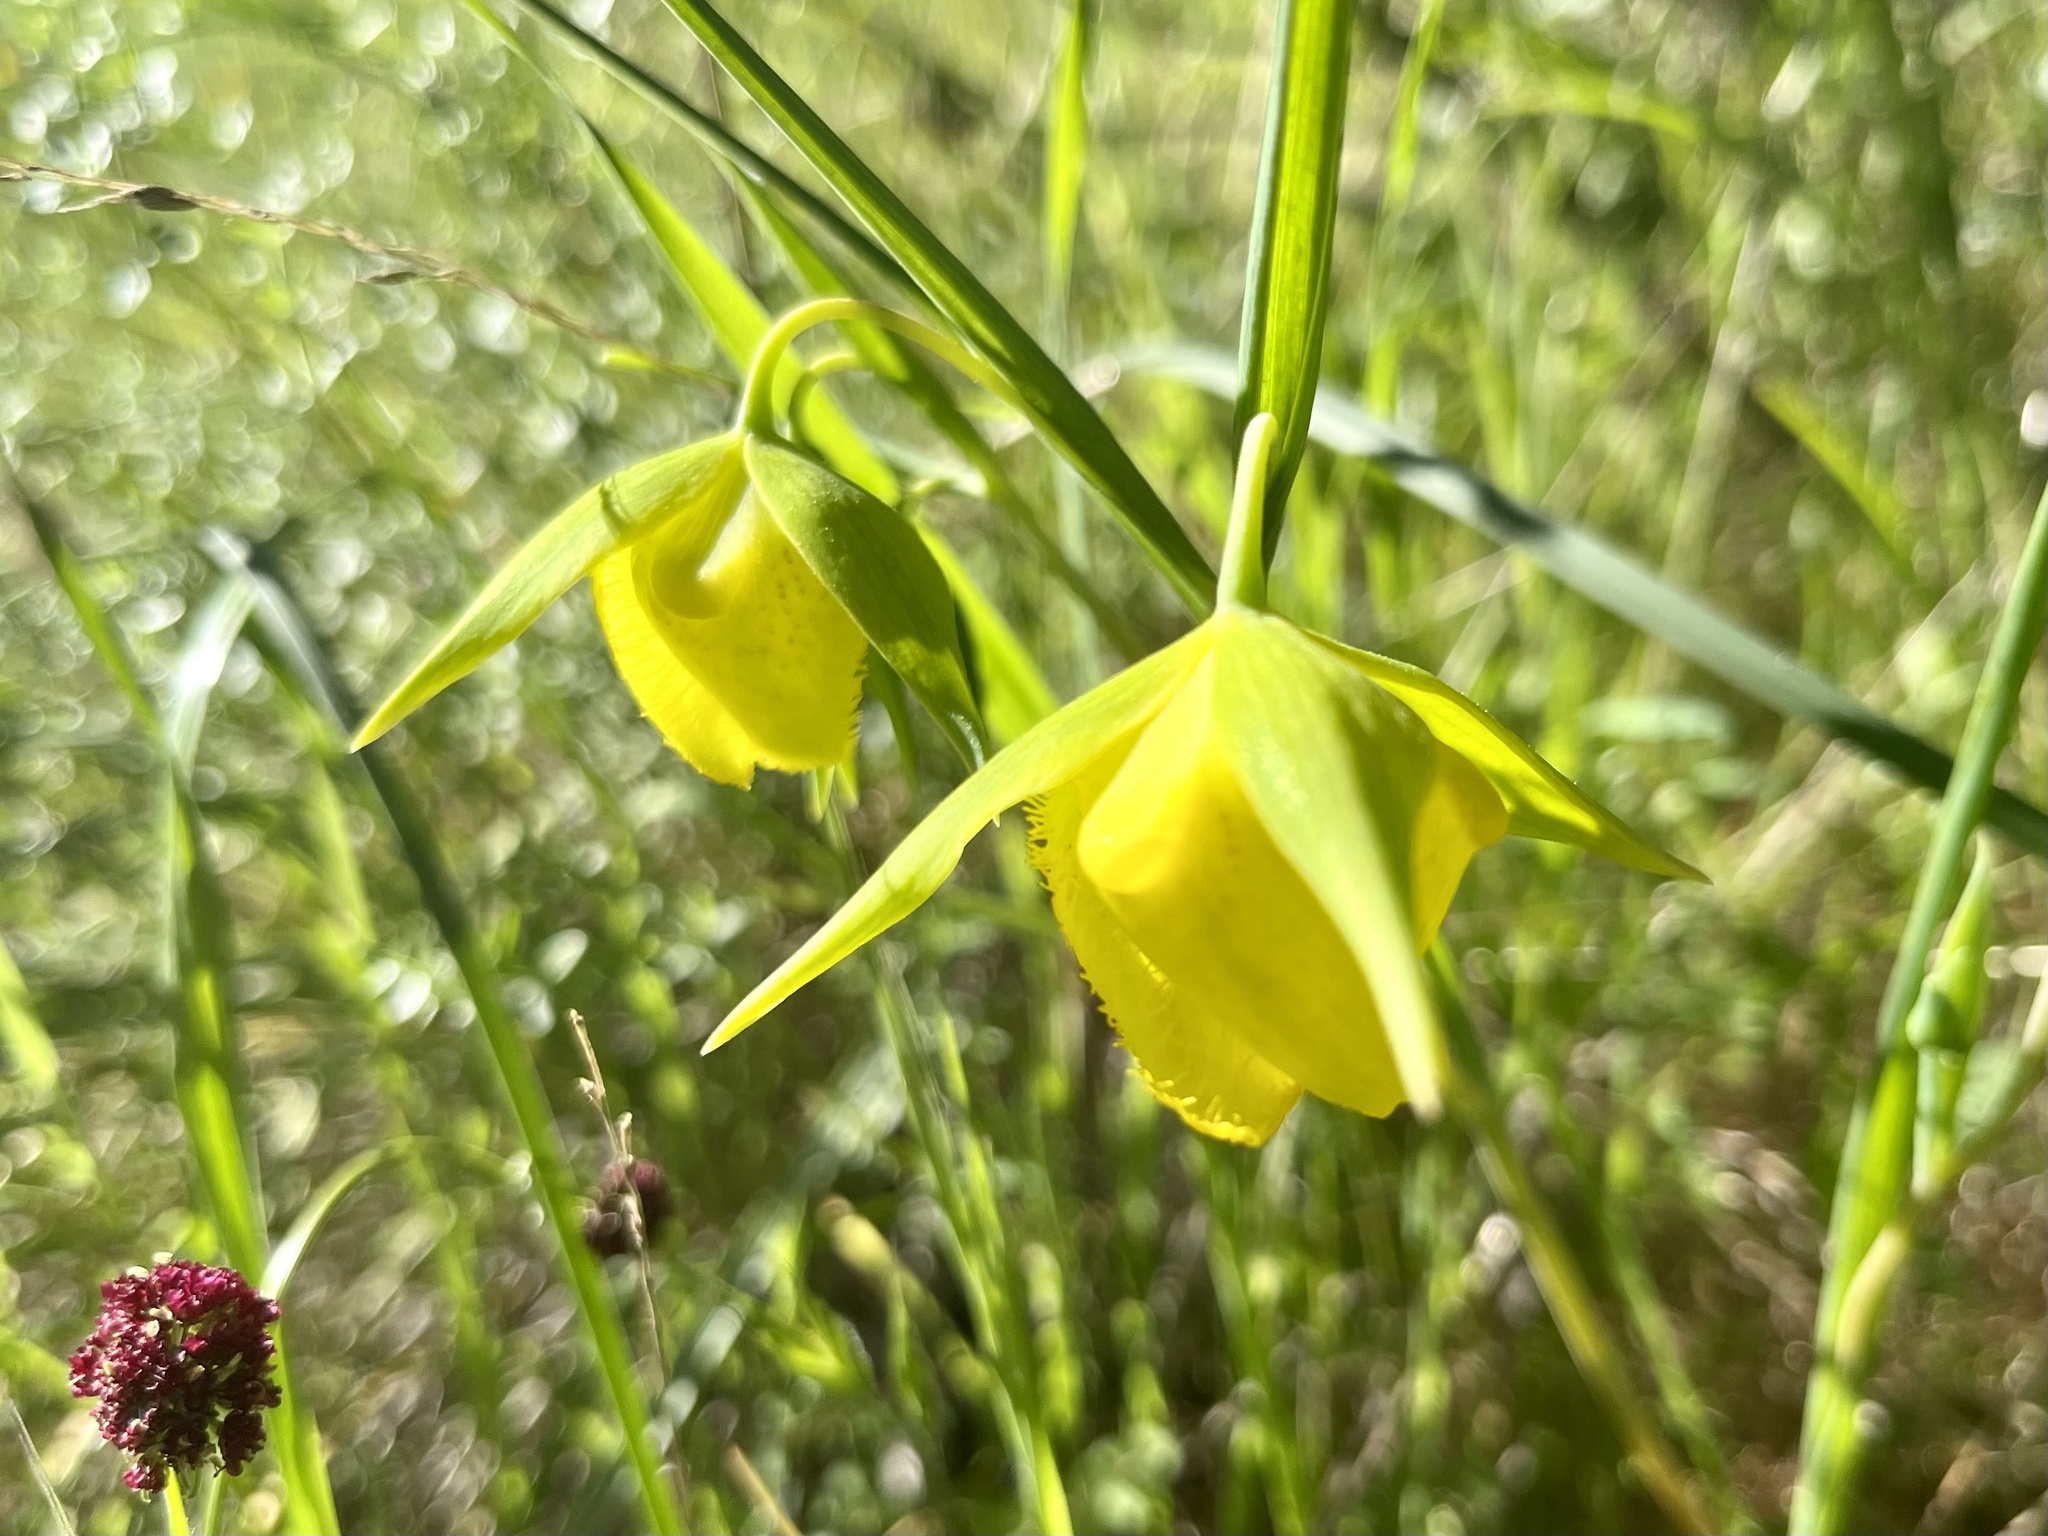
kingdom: Plantae
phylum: Tracheophyta
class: Liliopsida
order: Liliales
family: Liliaceae
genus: Calochortus
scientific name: Calochortus pulchellus
